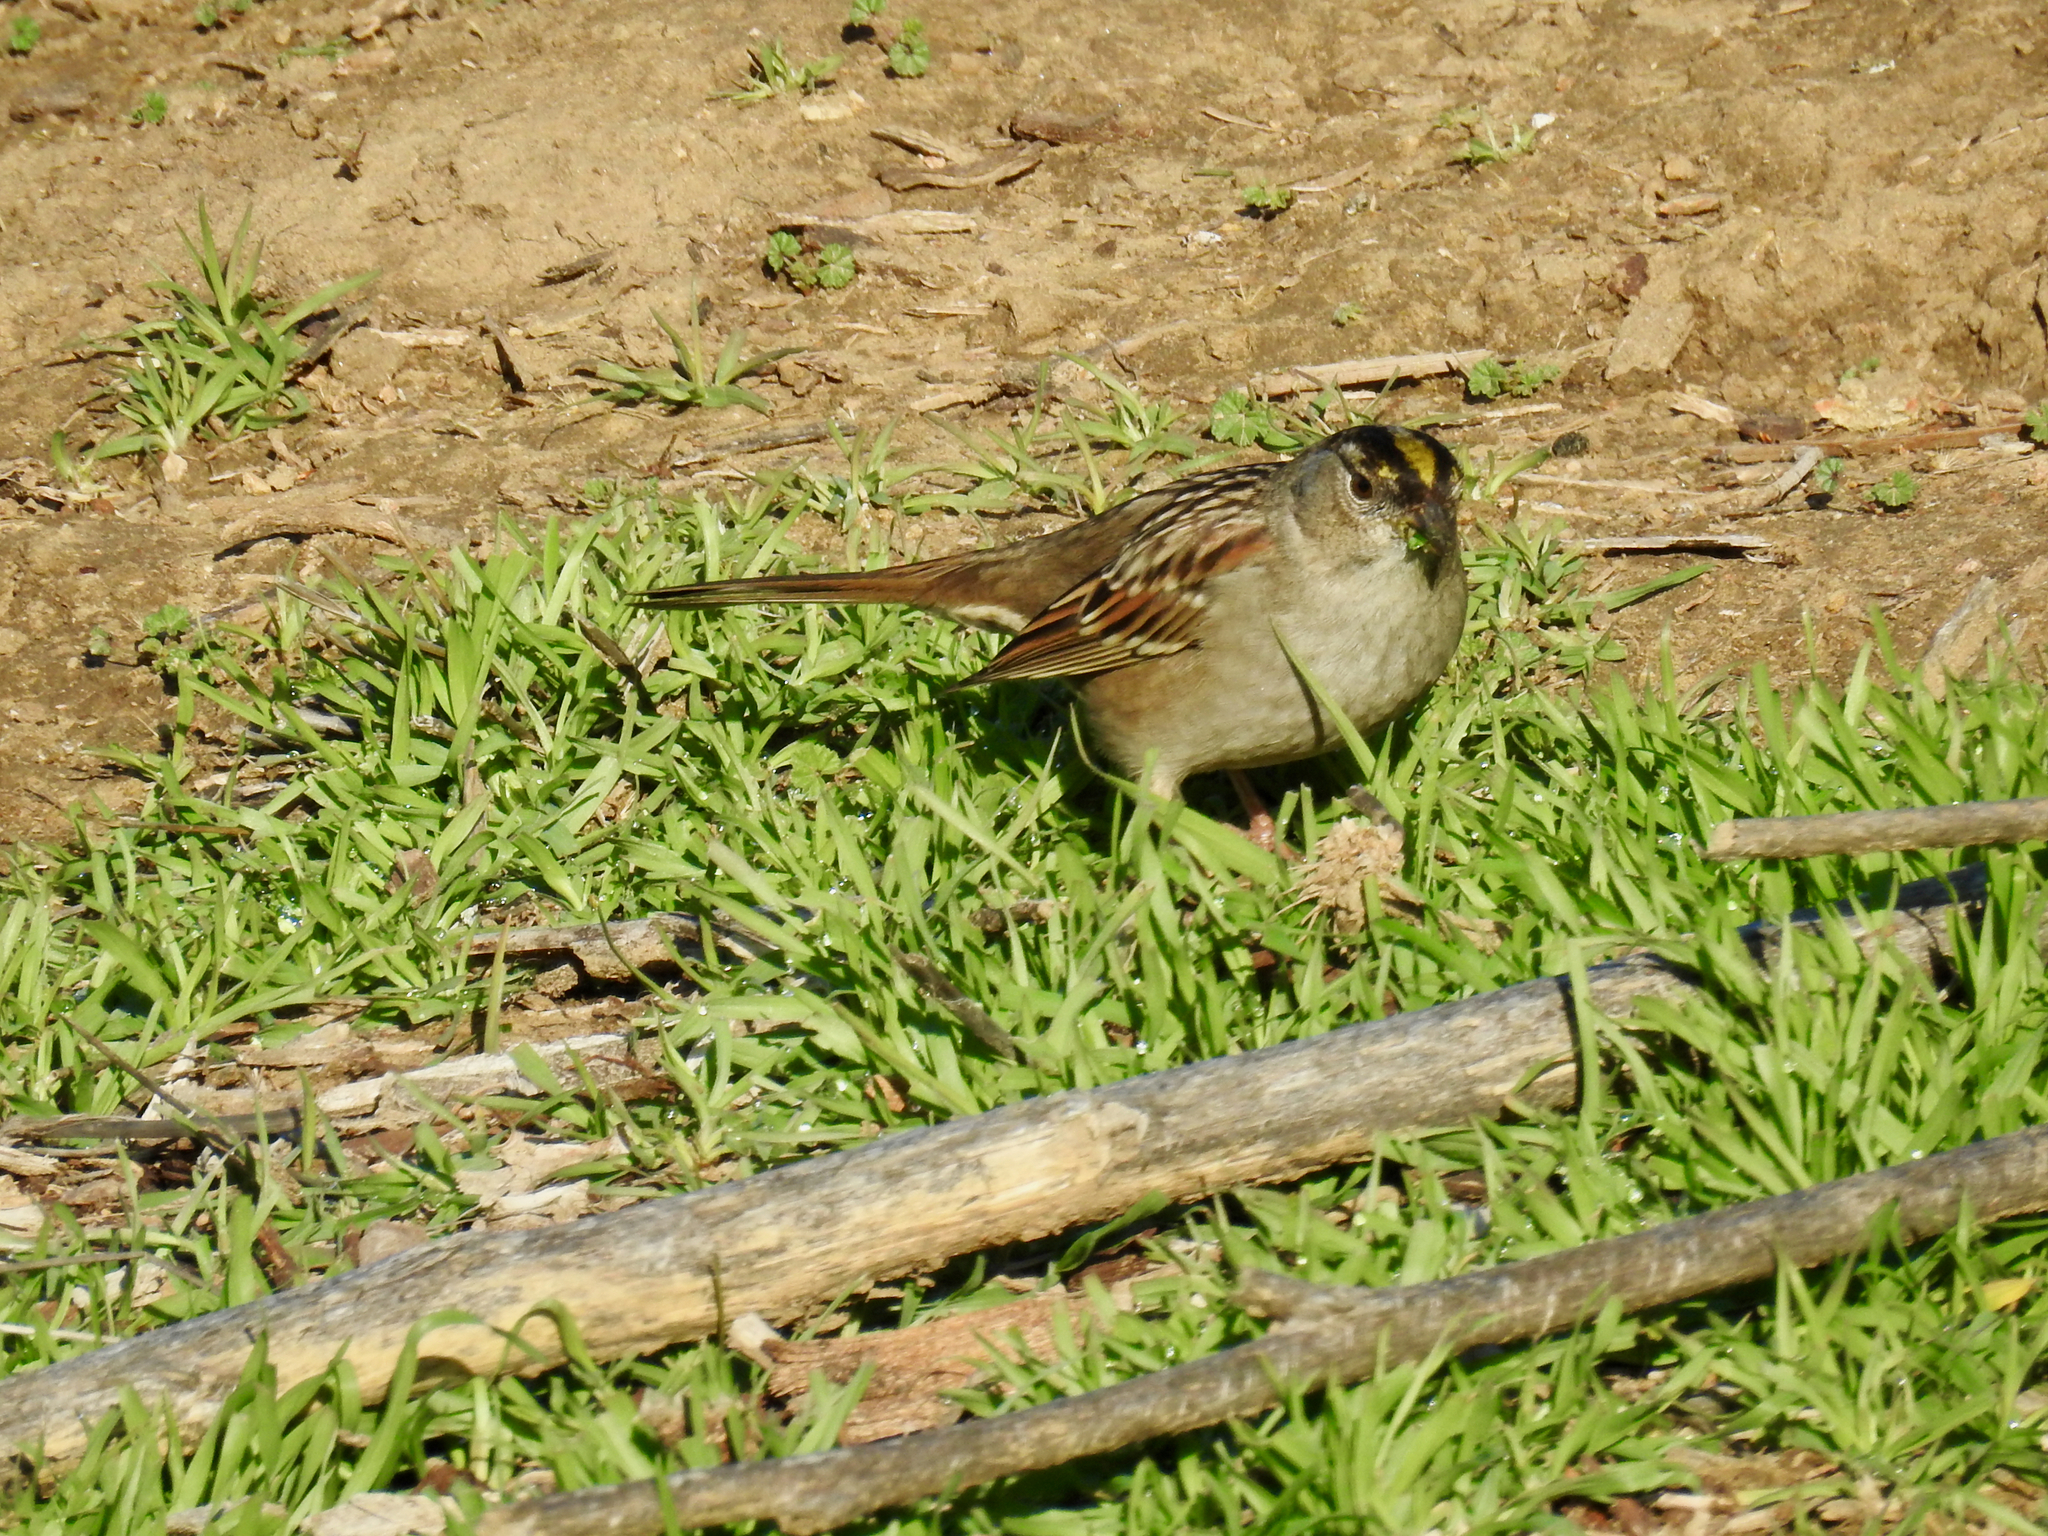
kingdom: Animalia
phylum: Chordata
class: Aves
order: Passeriformes
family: Passerellidae
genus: Zonotrichia
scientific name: Zonotrichia atricapilla
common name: Golden-crowned sparrow
